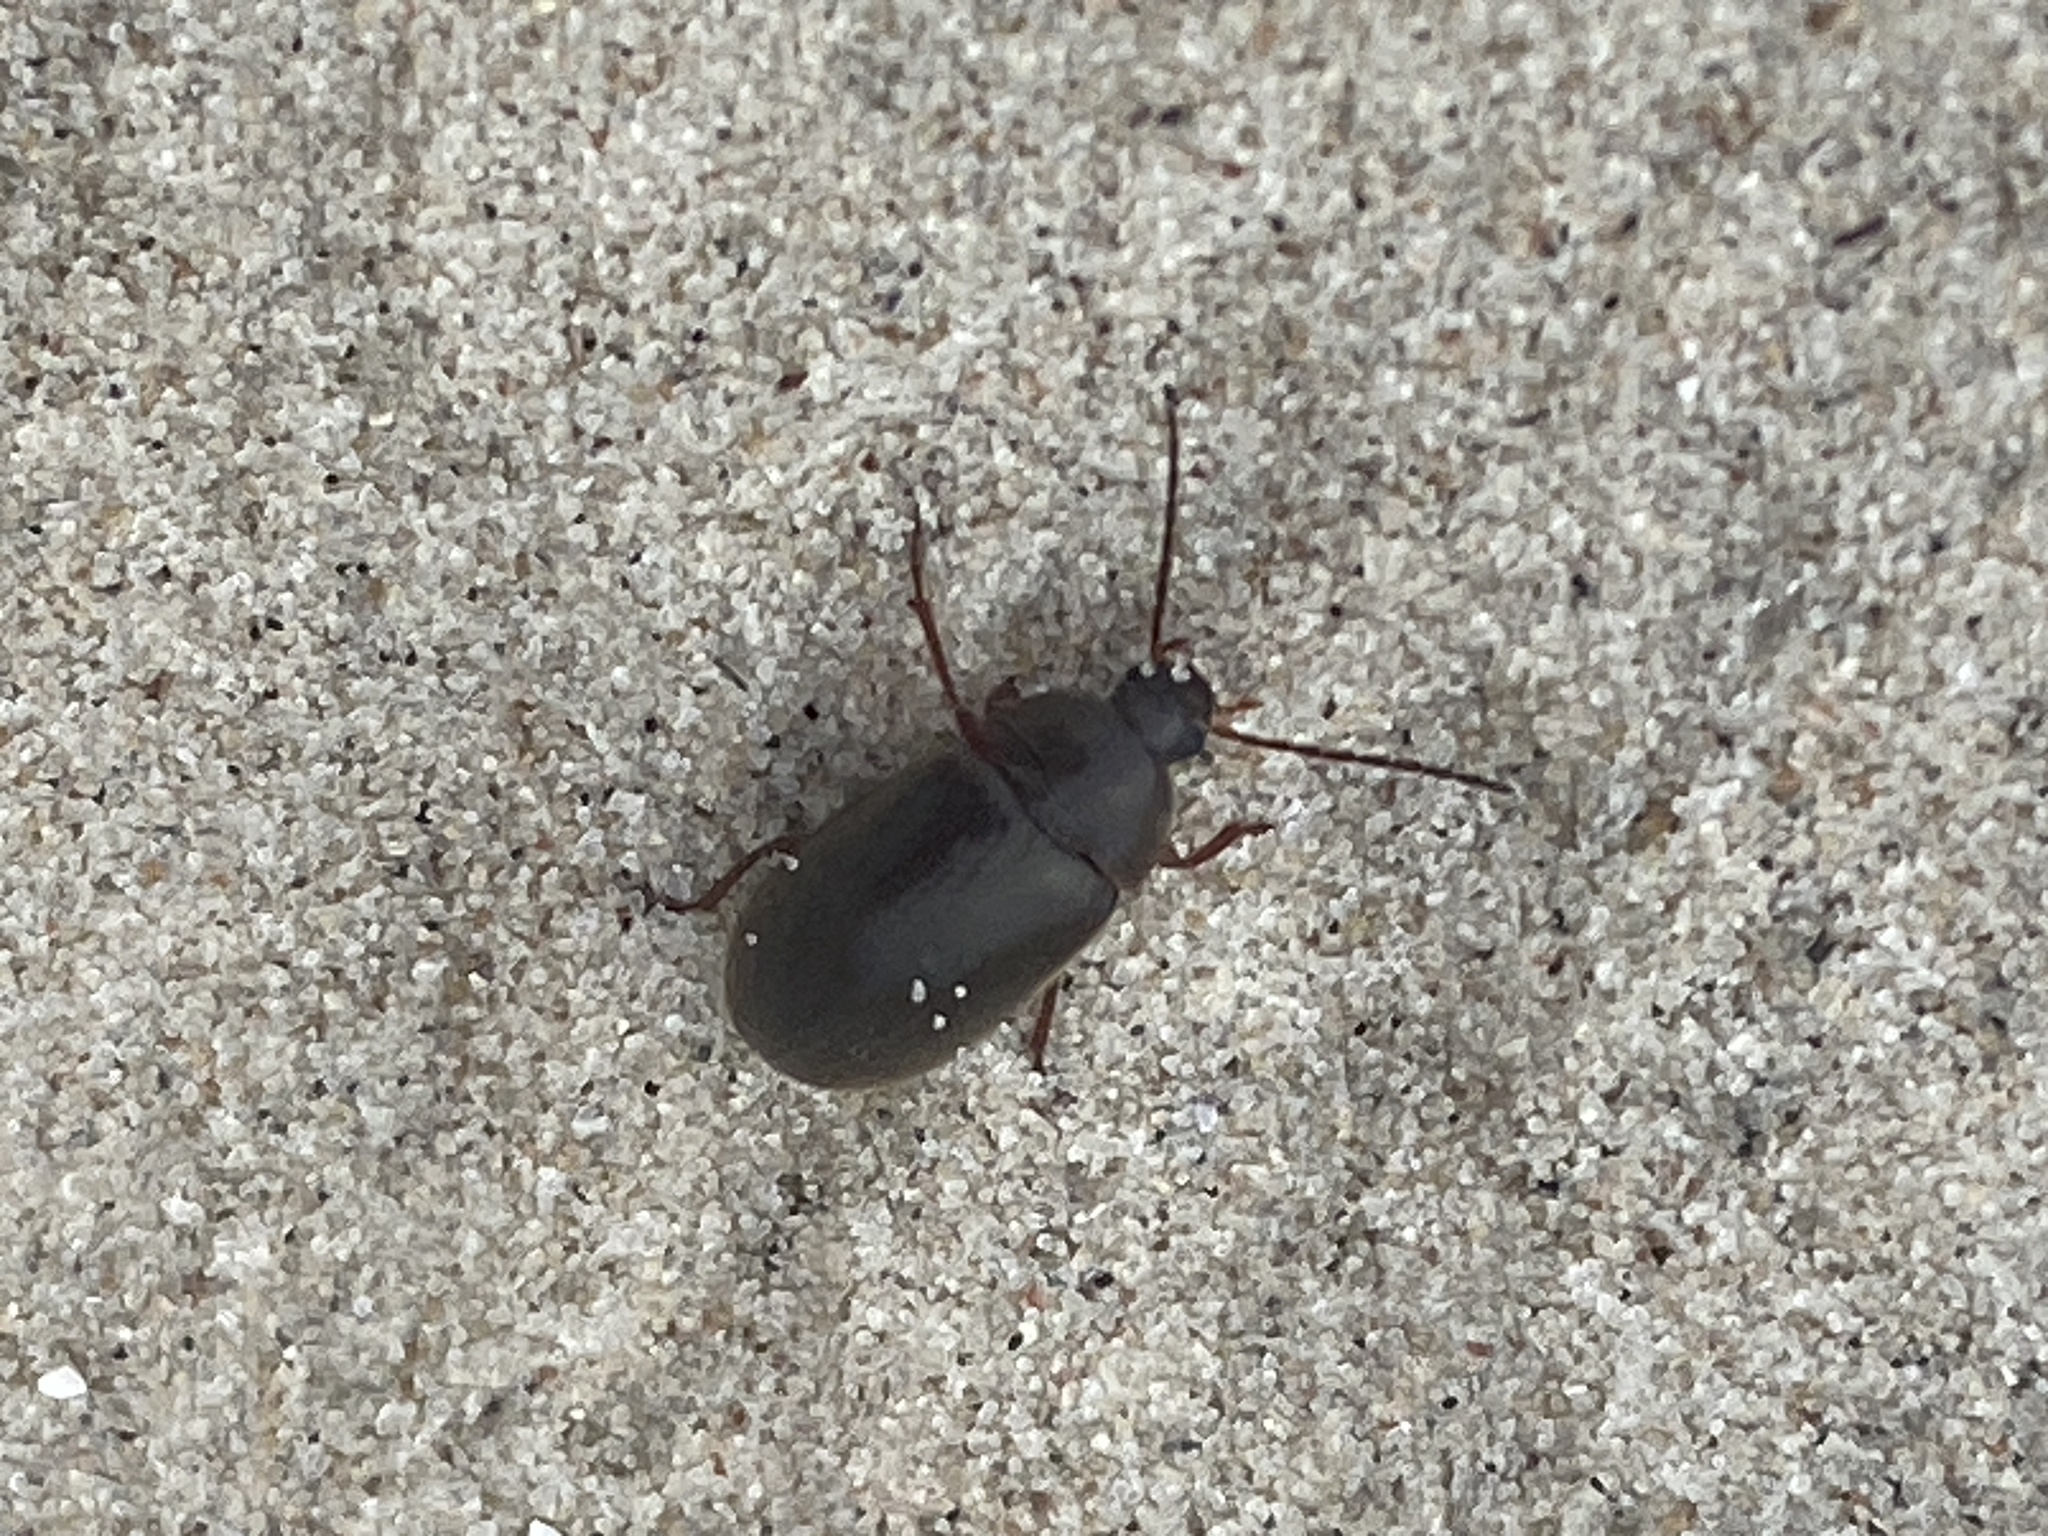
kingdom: Animalia
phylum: Arthropoda
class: Insecta
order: Coleoptera
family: Tenebrionidae
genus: Allecula
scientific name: Allecula morio
